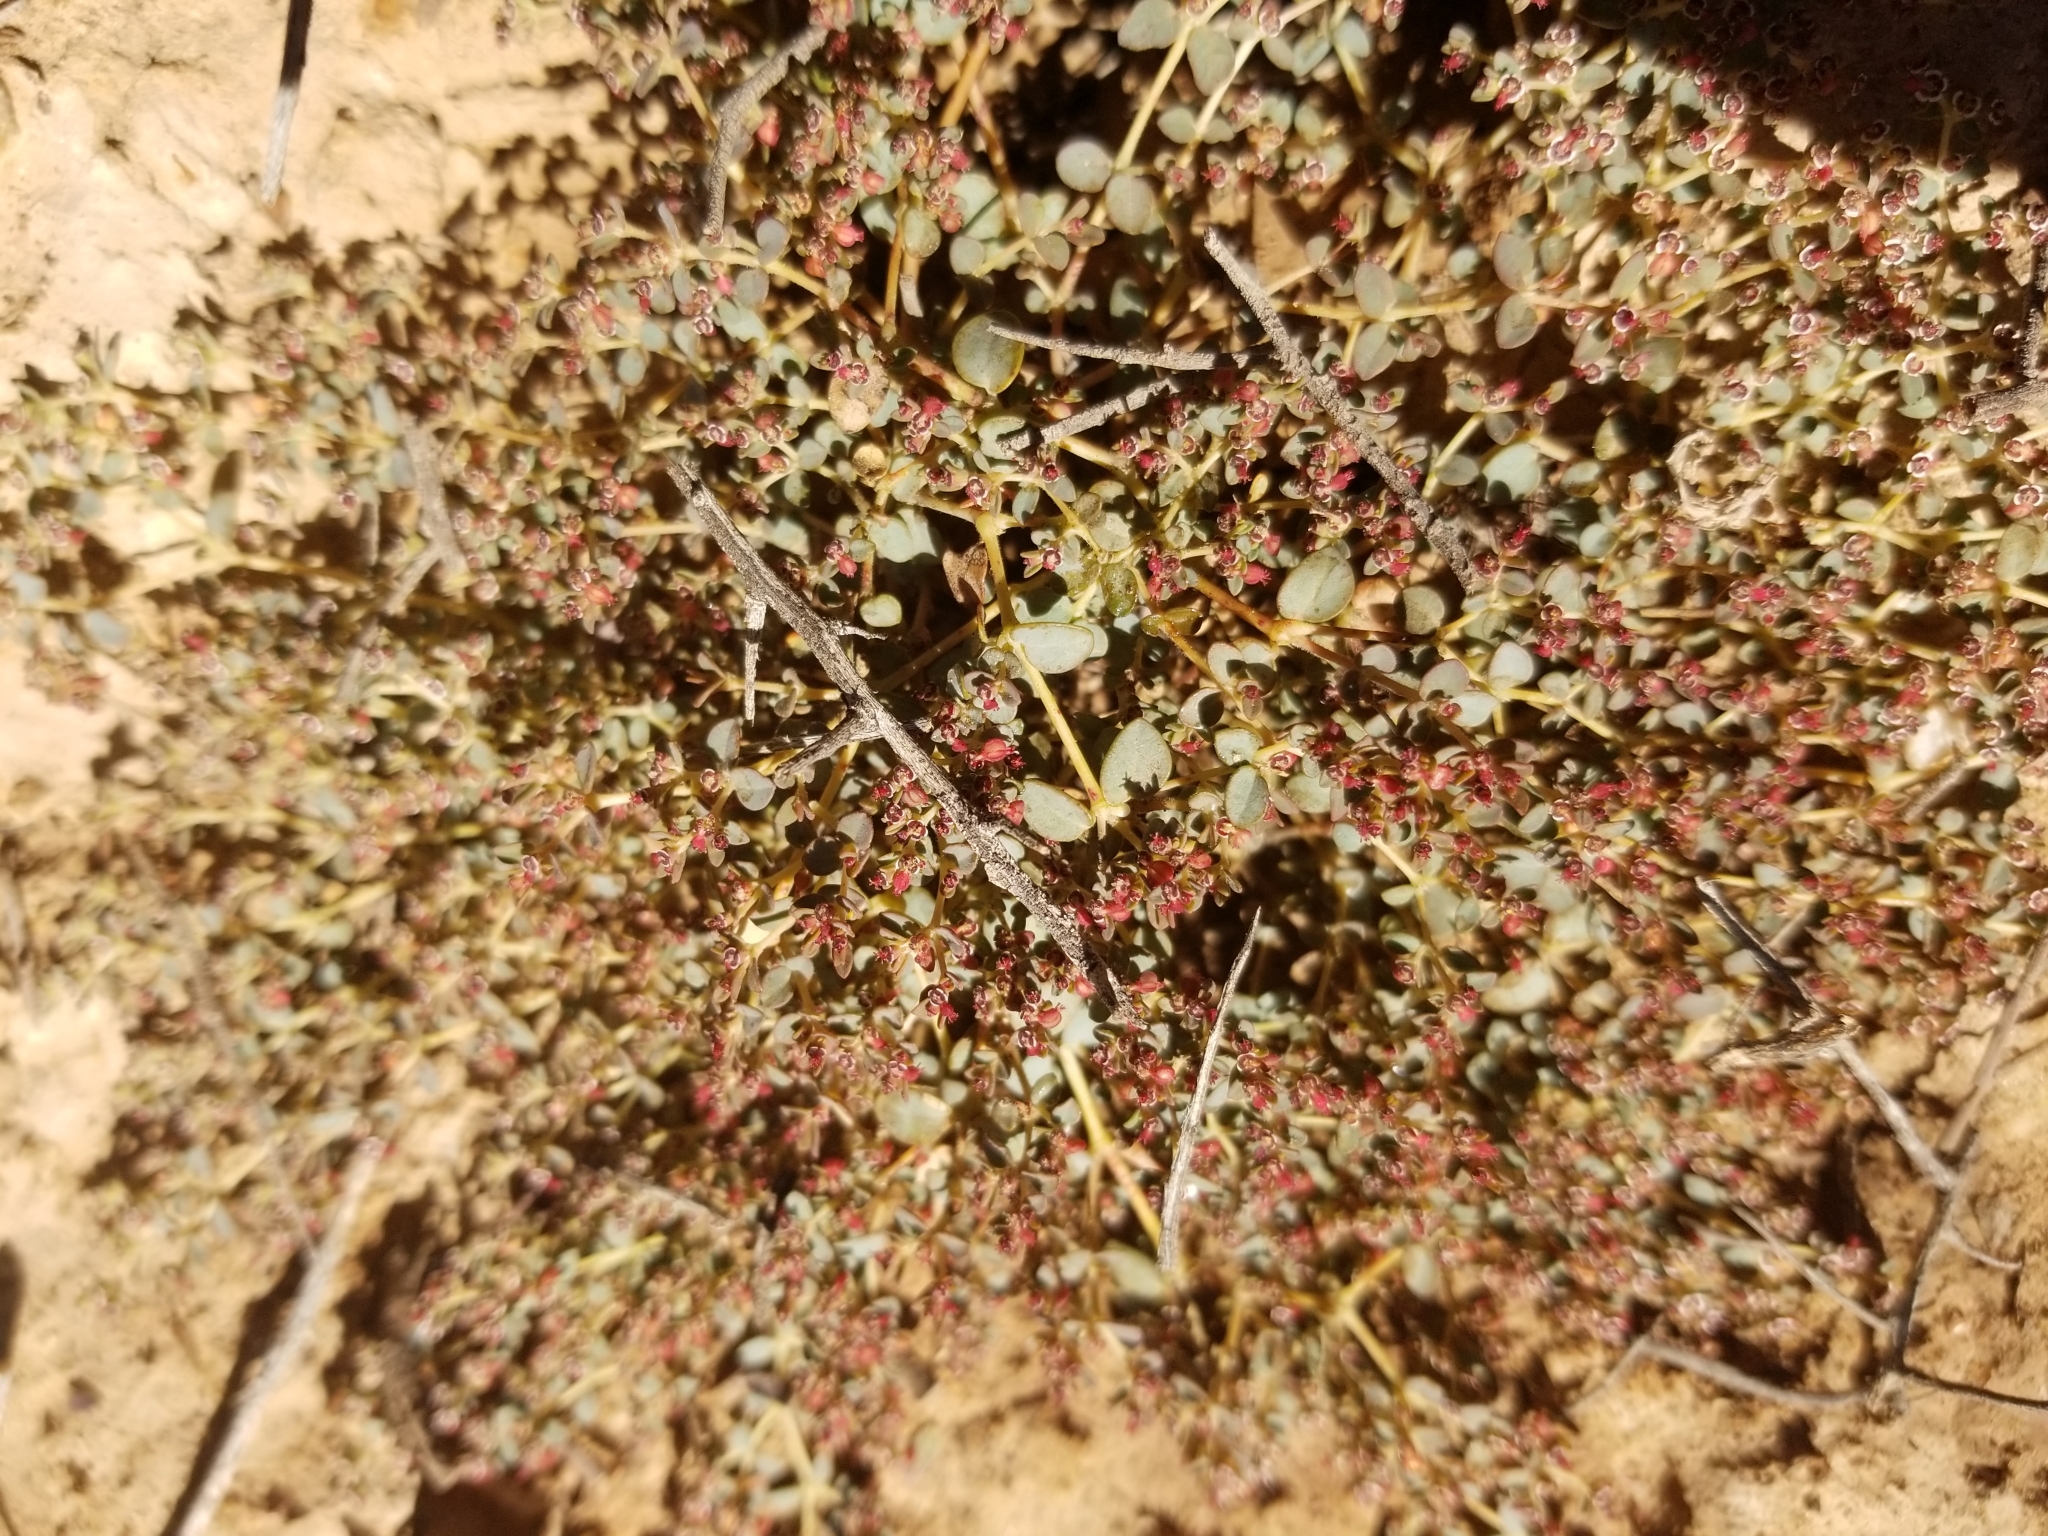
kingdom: Plantae
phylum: Tracheophyta
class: Magnoliopsida
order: Malpighiales
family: Euphorbiaceae
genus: Euphorbia
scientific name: Euphorbia polycarpa
